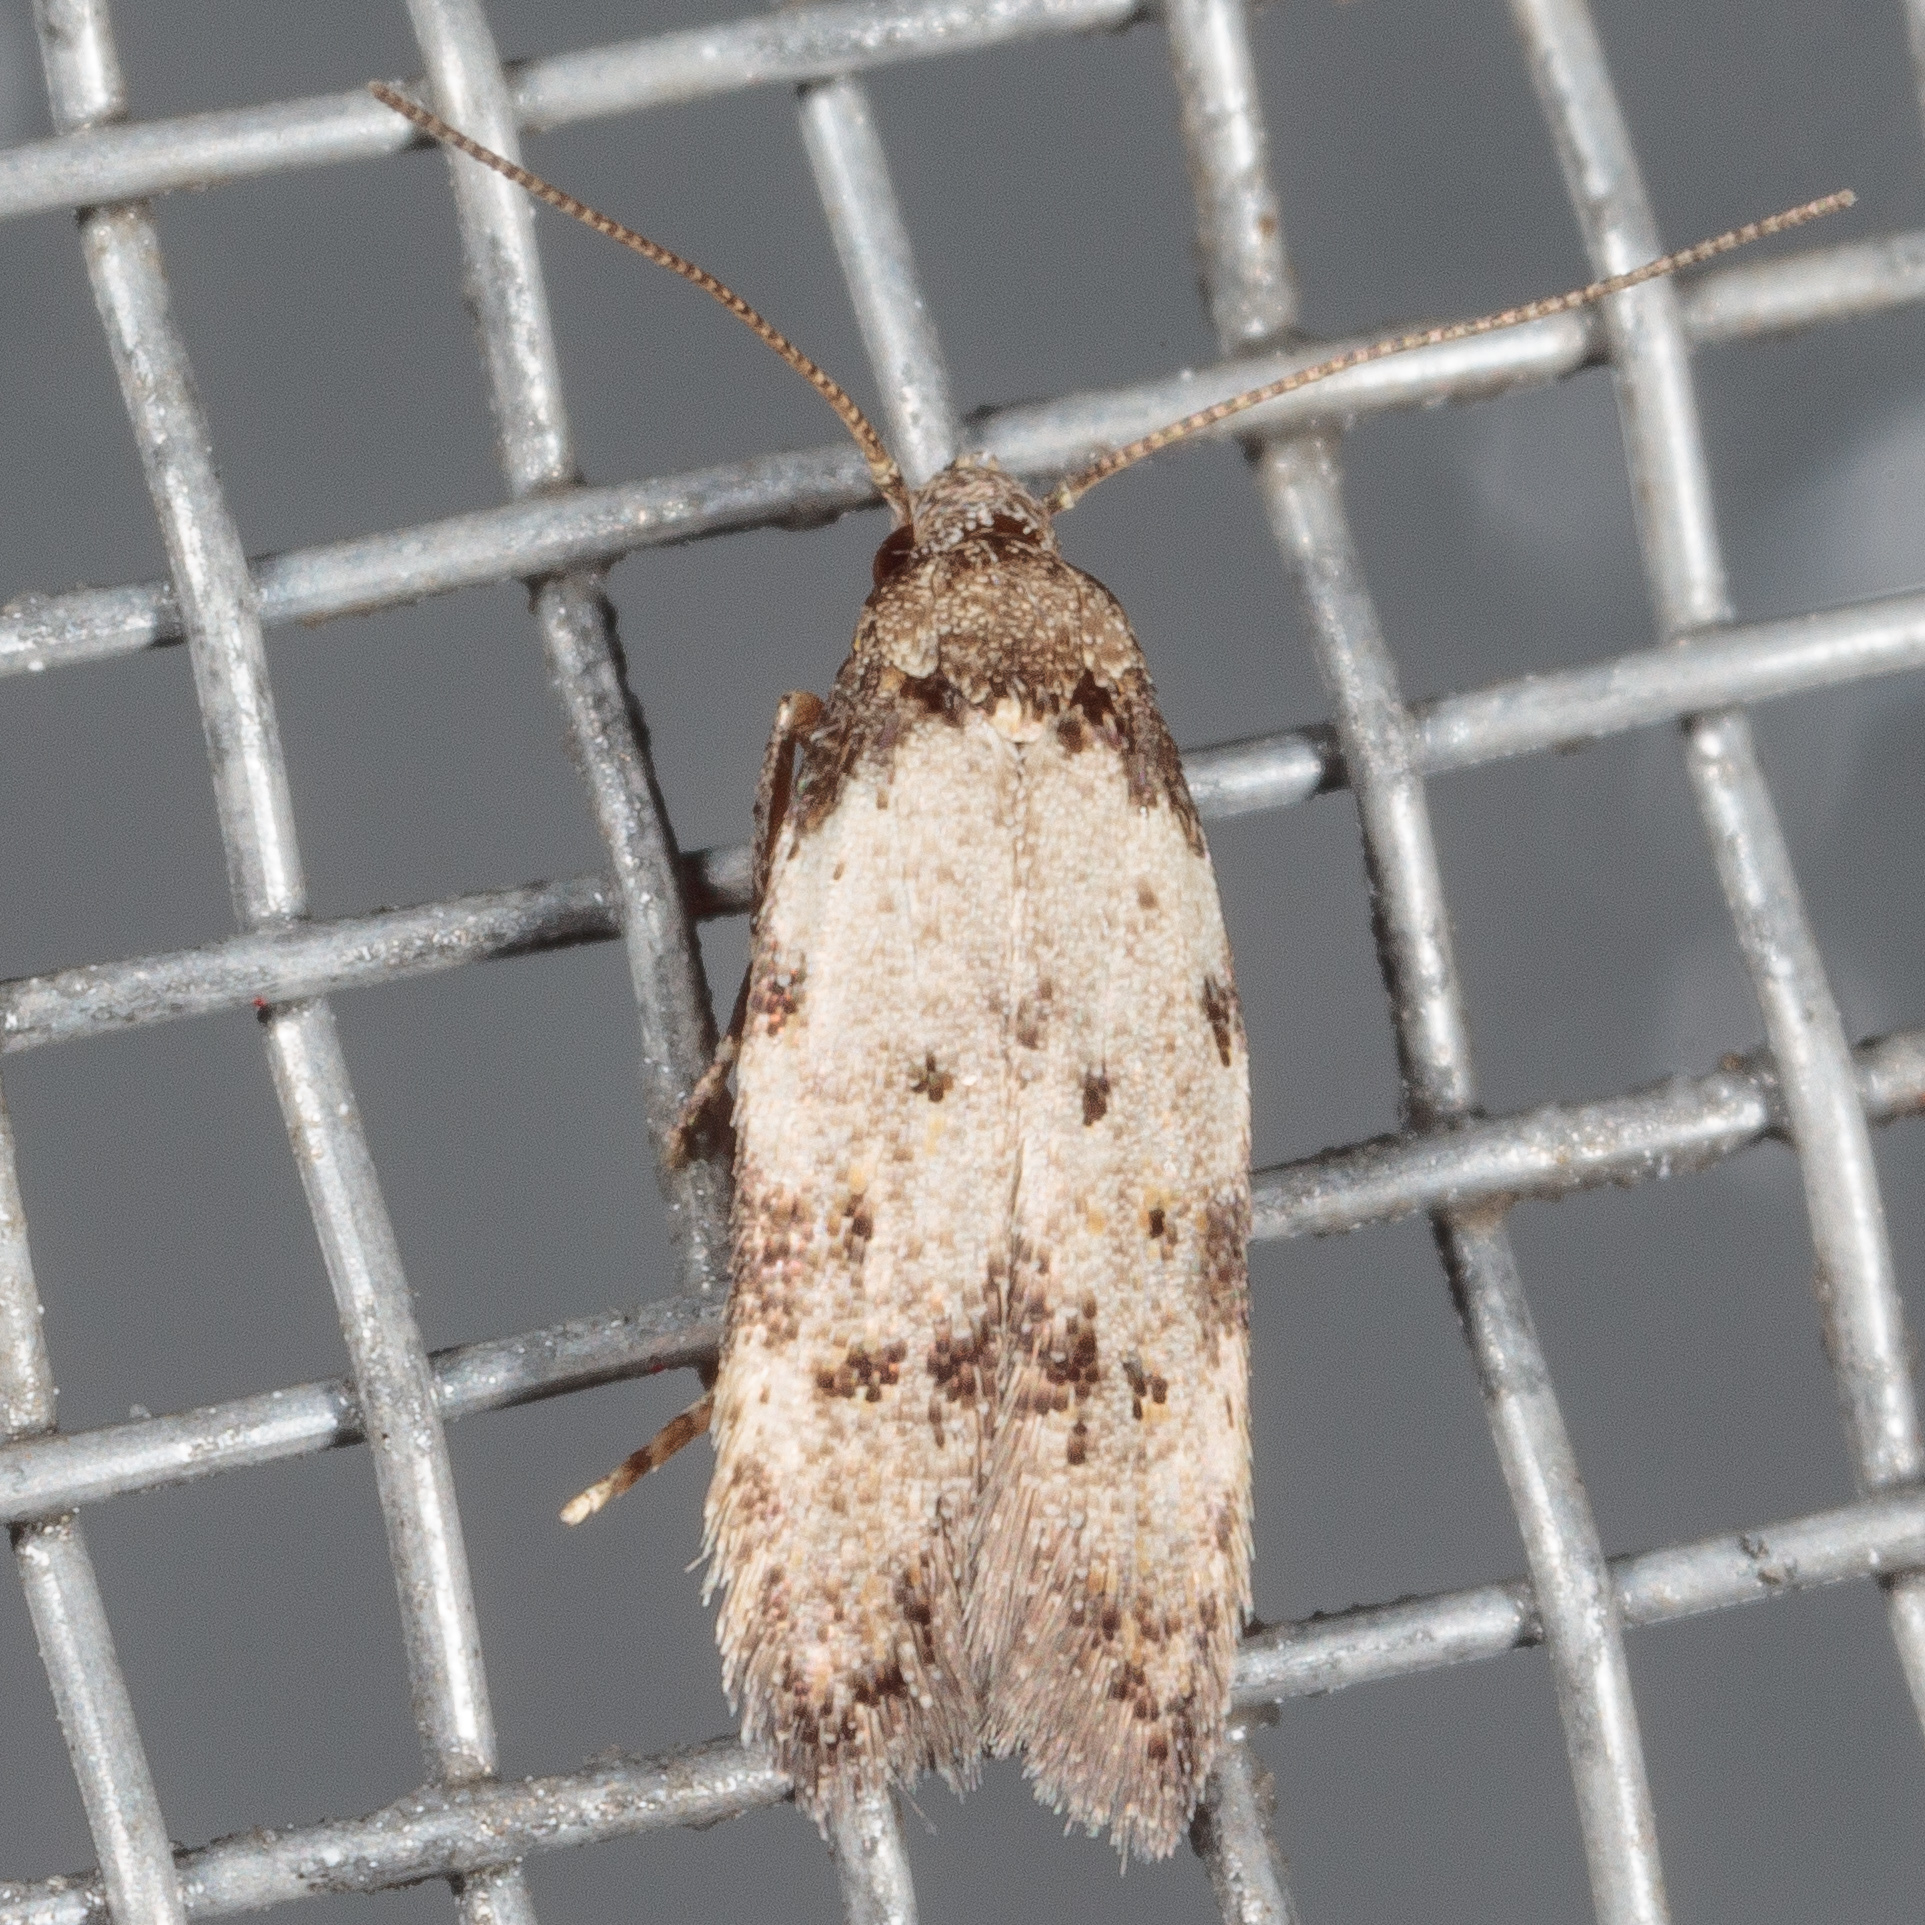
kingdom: Animalia
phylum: Arthropoda
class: Insecta
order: Lepidoptera
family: Autostichidae
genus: Taygete
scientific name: Taygete attributella
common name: Triangle-marked twirler moth
